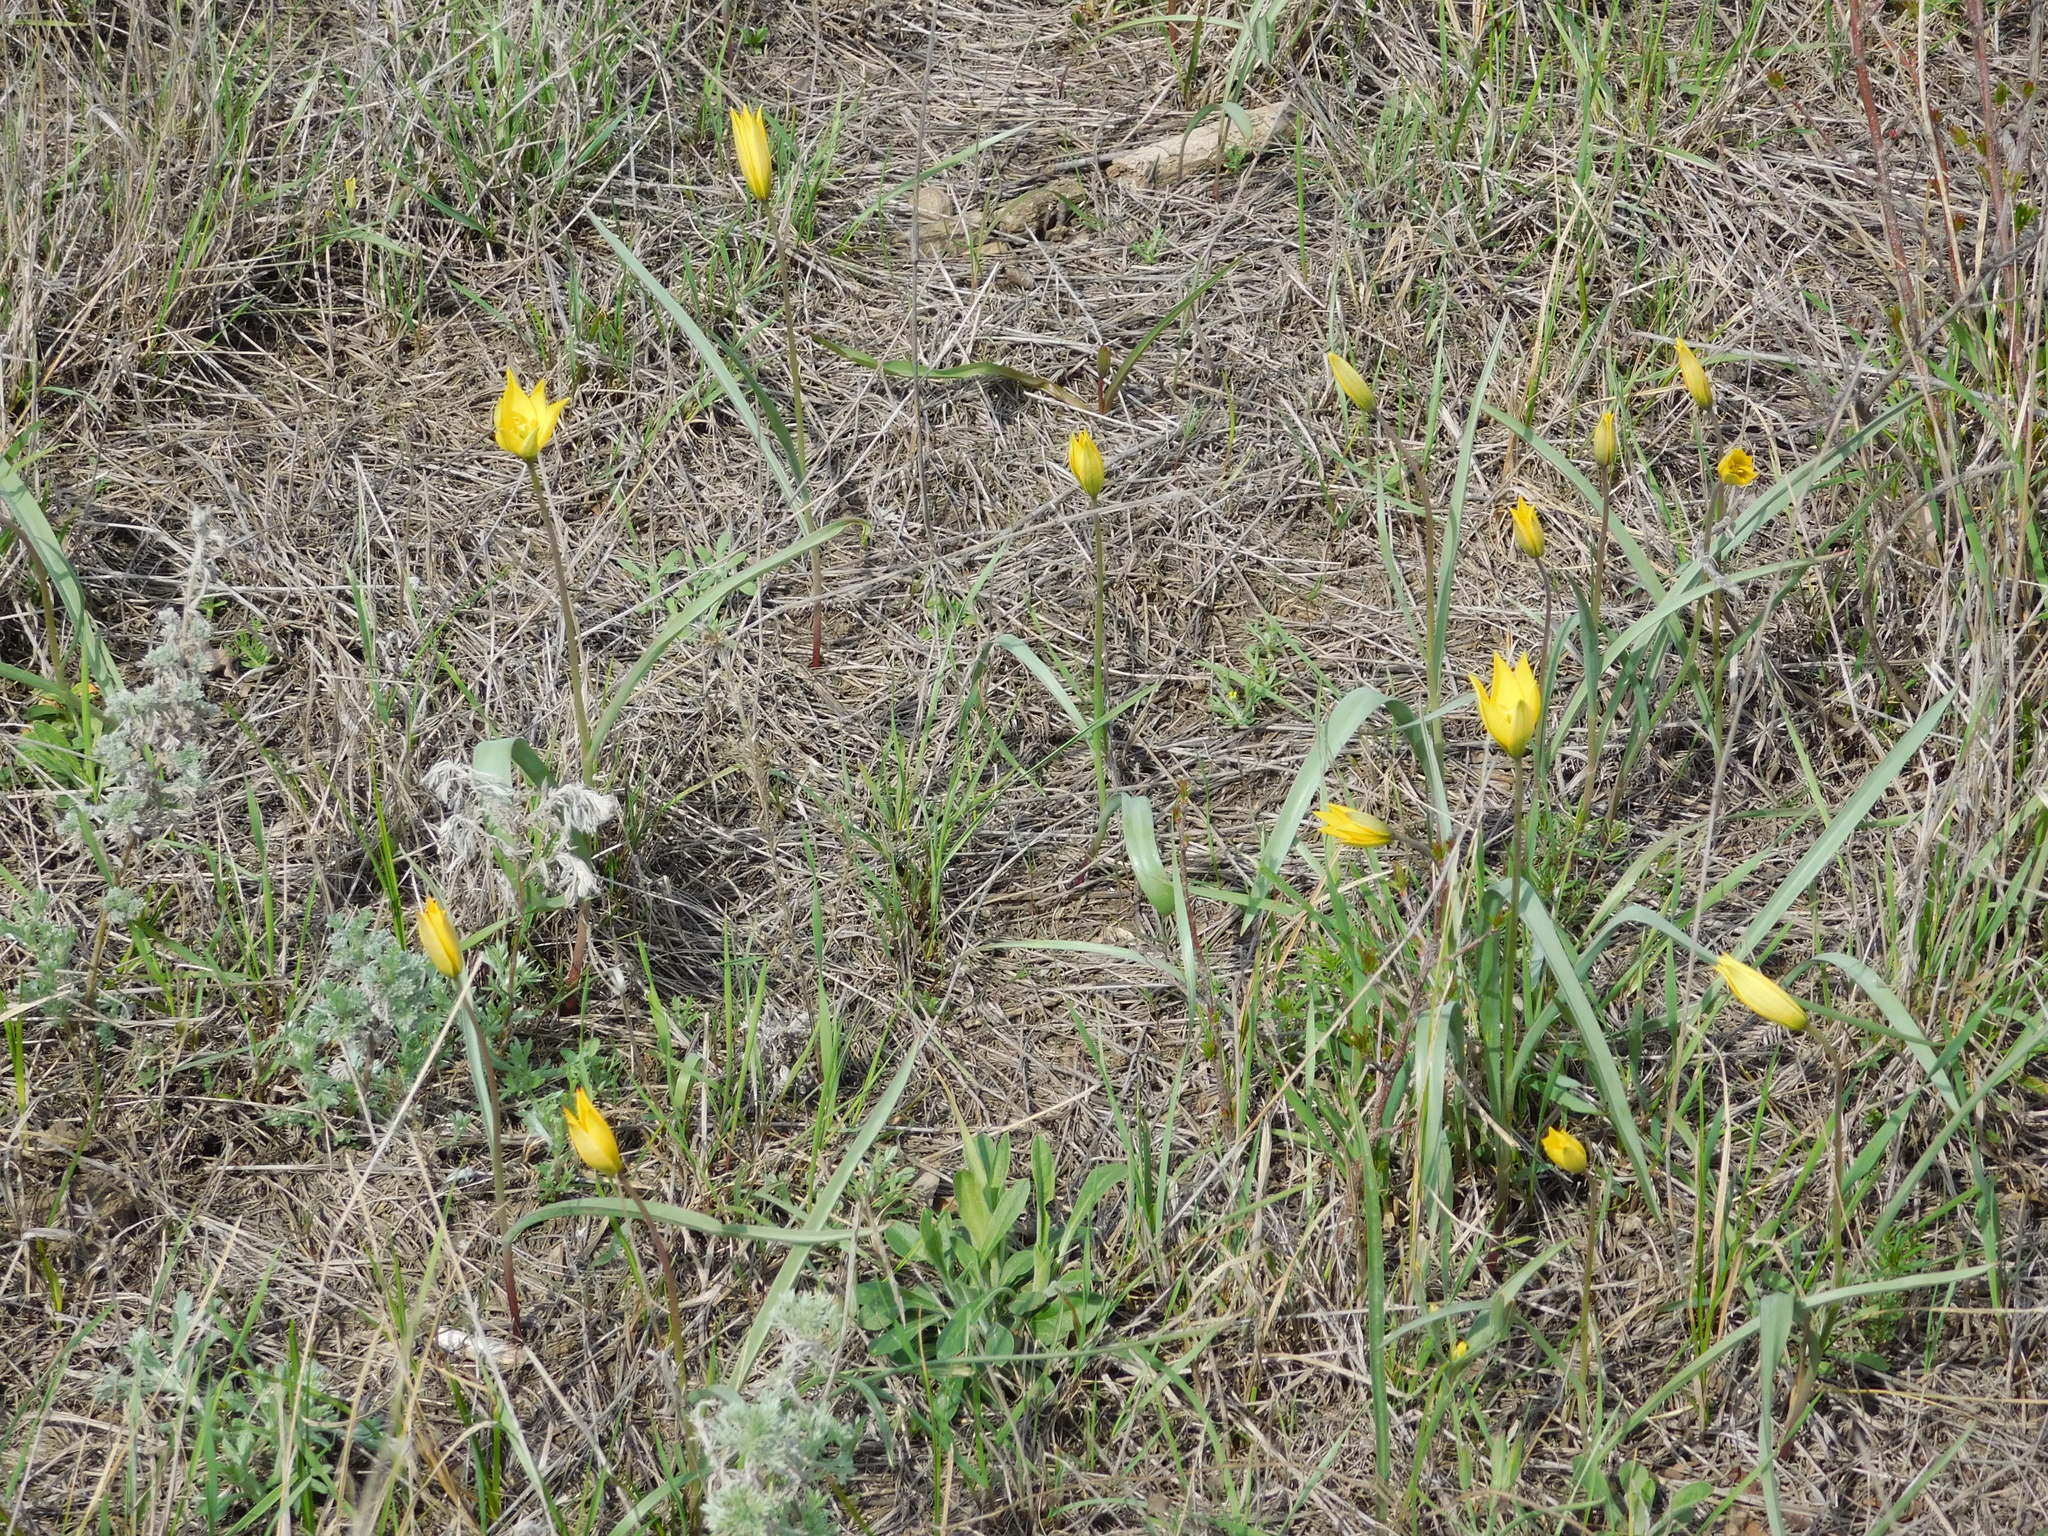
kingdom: Plantae
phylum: Tracheophyta
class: Liliopsida
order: Liliales
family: Liliaceae
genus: Tulipa
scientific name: Tulipa sylvestris
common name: Wild tulip
